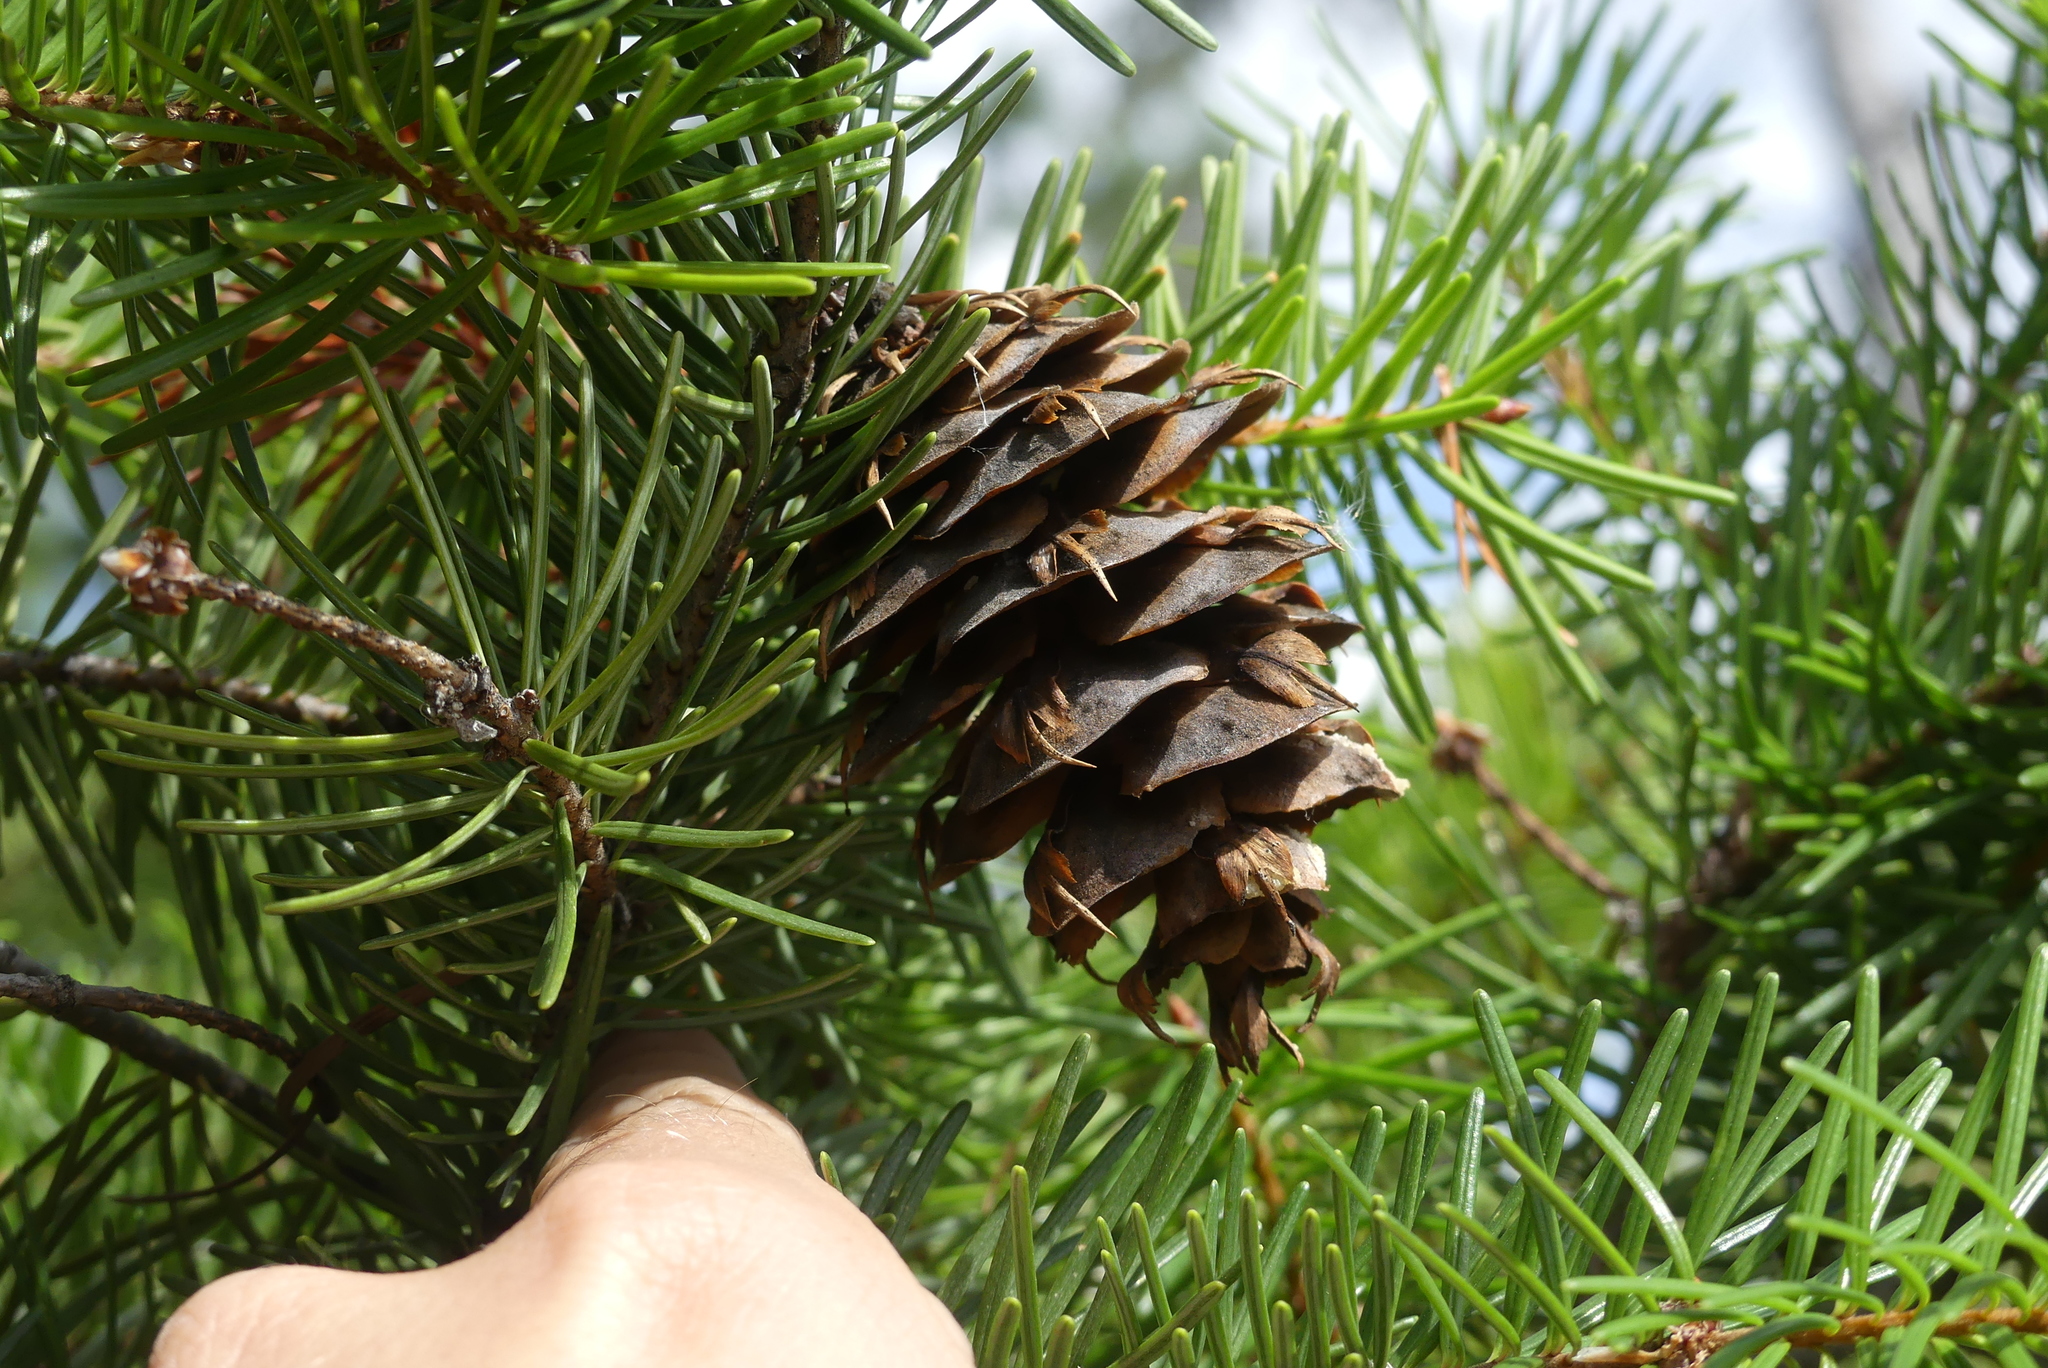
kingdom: Plantae
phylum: Tracheophyta
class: Pinopsida
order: Pinales
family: Pinaceae
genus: Pseudotsuga
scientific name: Pseudotsuga menziesii
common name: Douglas fir
